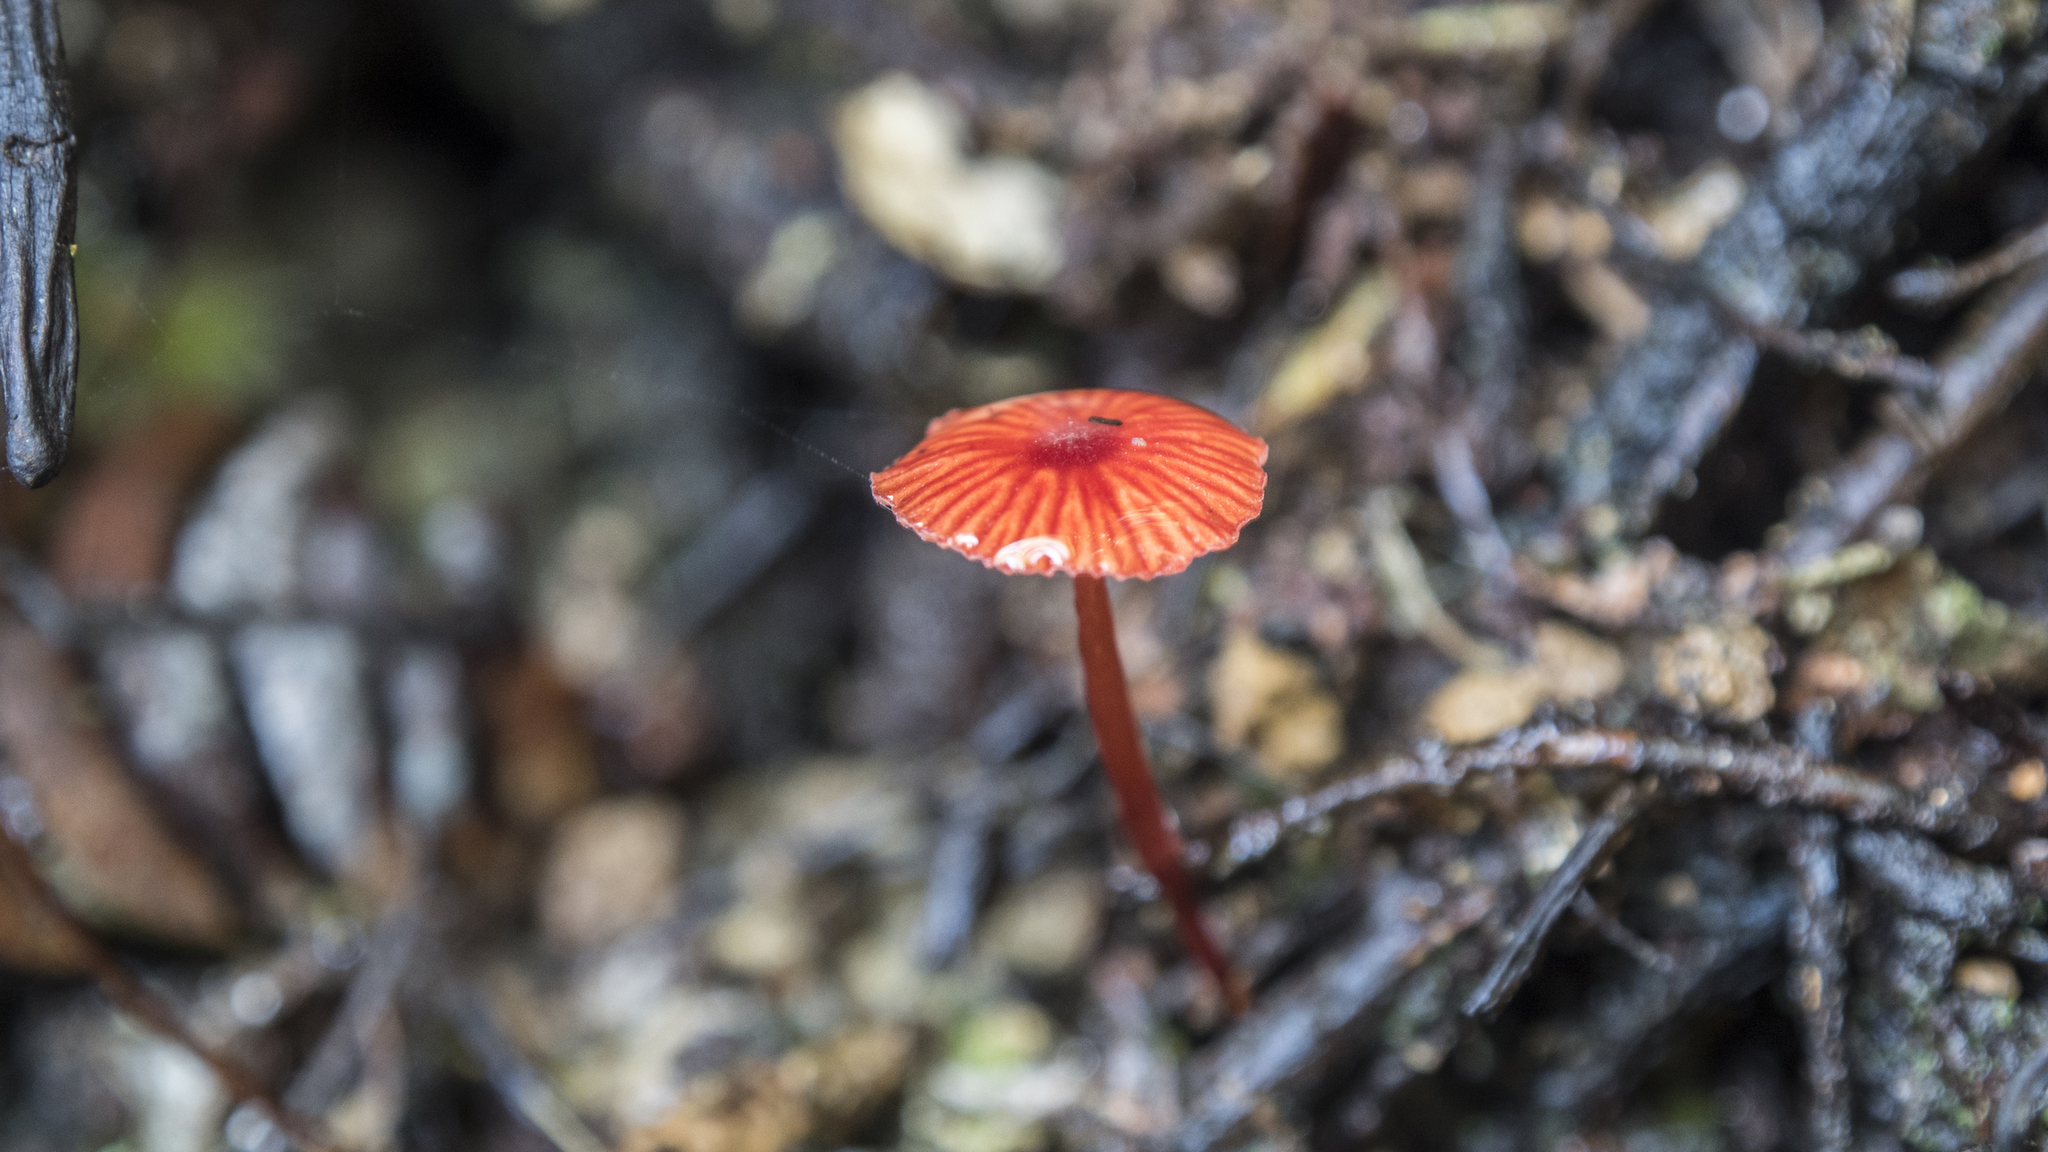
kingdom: Fungi
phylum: Basidiomycota
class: Agaricomycetes
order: Agaricales
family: Mycenaceae
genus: Cruentomycena
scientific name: Cruentomycena viscidocruenta
